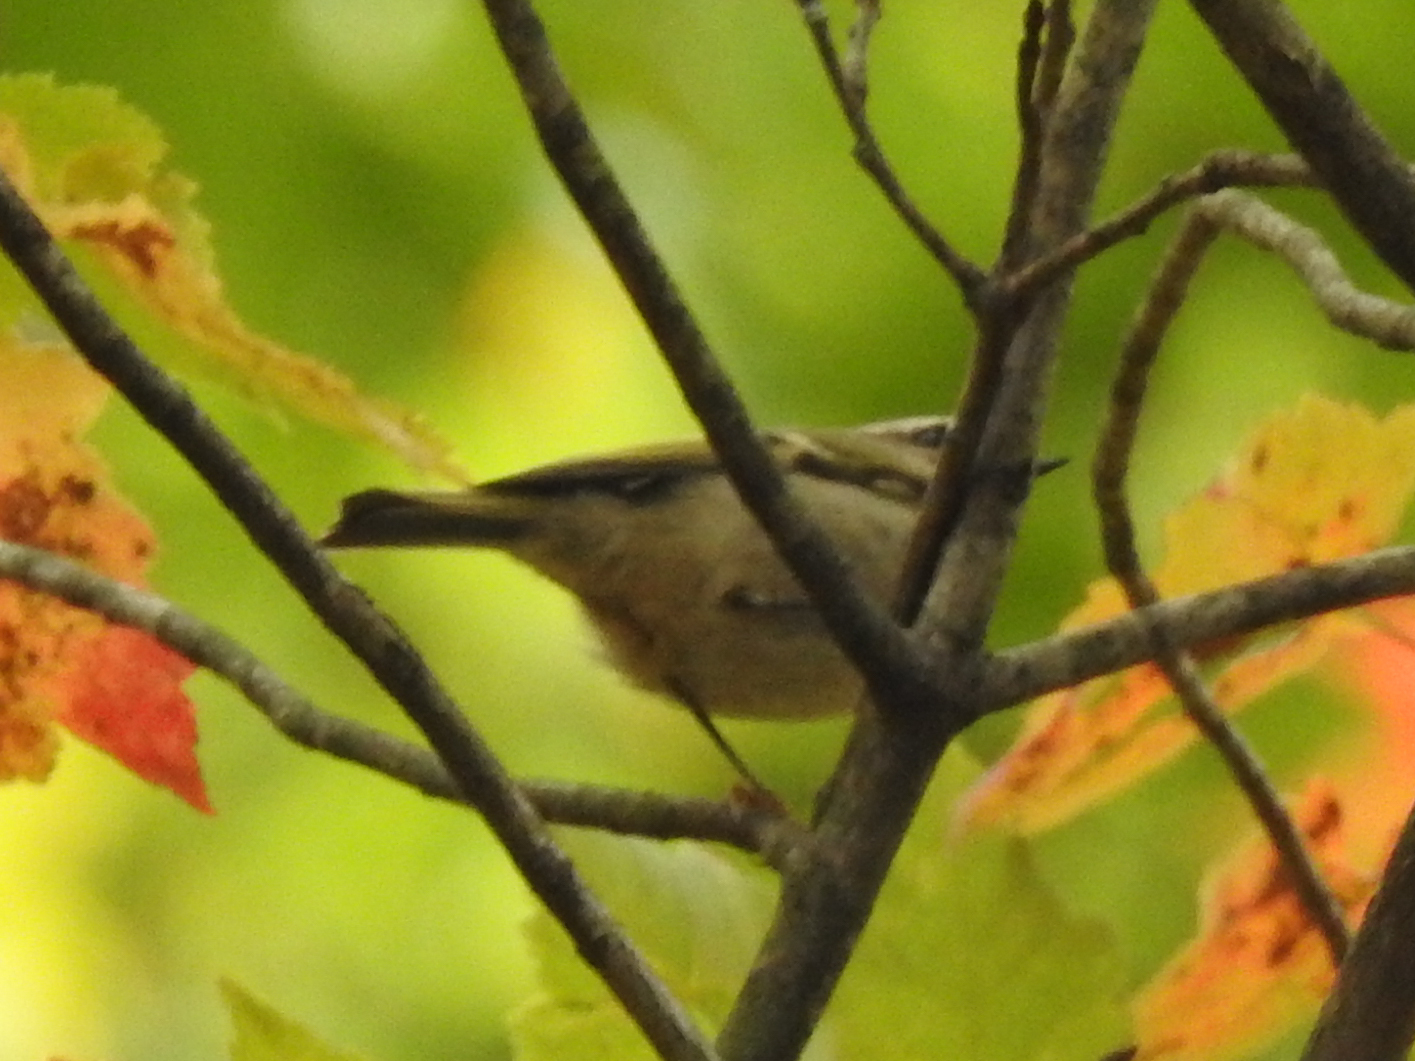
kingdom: Animalia
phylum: Chordata
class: Aves
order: Passeriformes
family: Regulidae
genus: Regulus
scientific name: Regulus satrapa
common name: Golden-crowned kinglet
